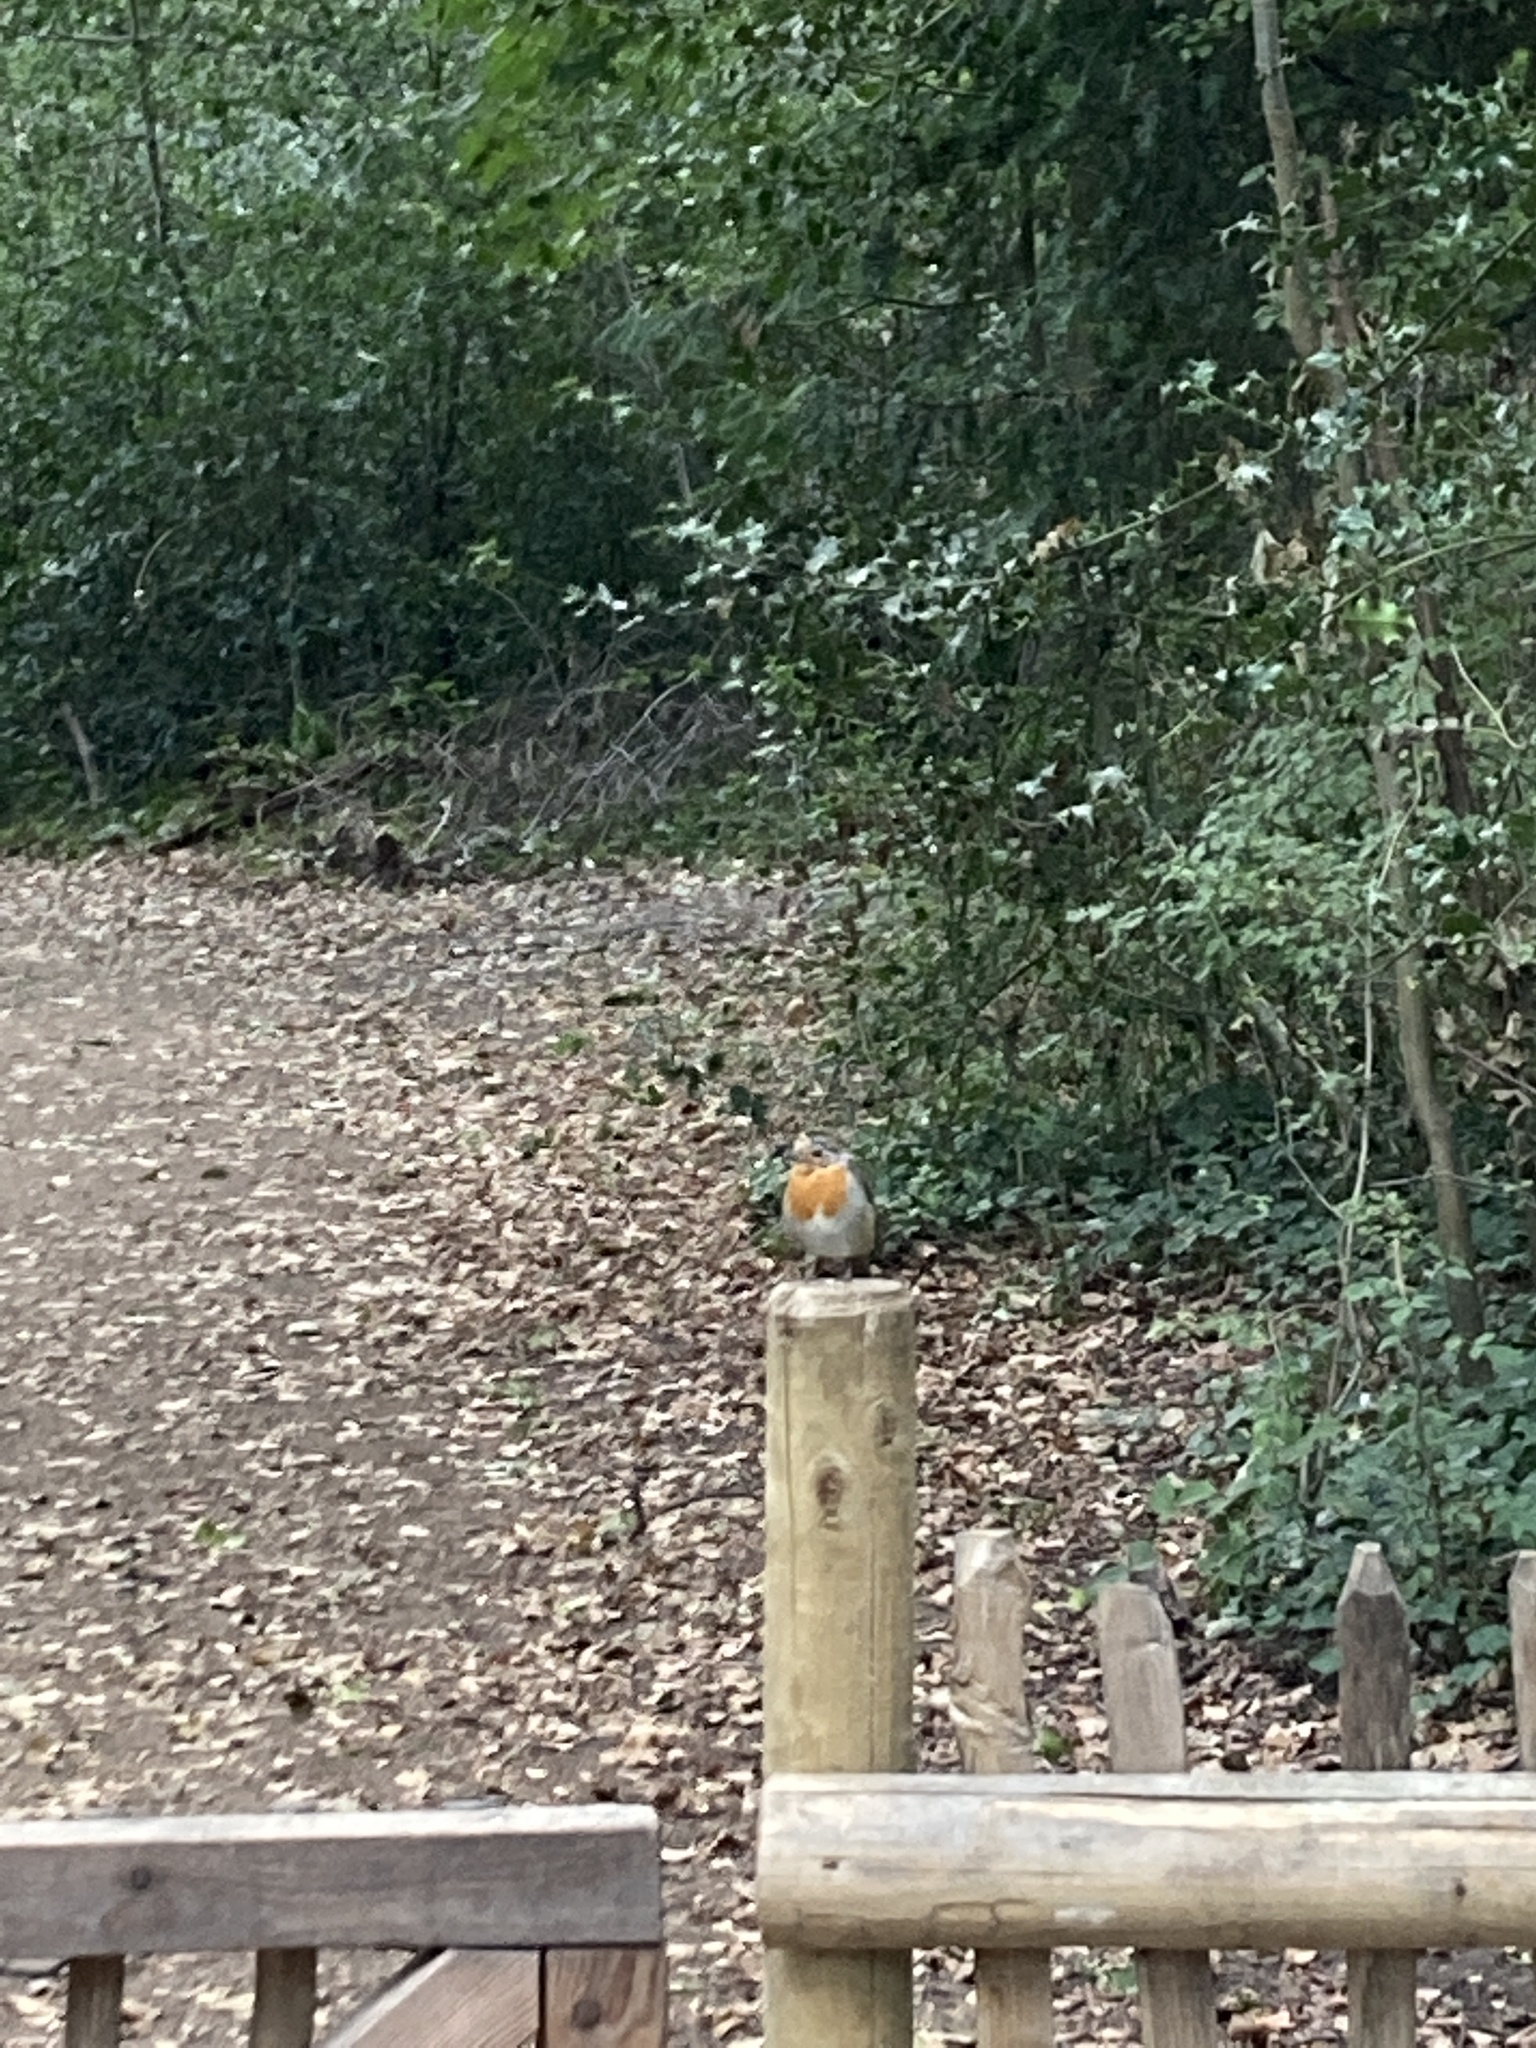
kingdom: Animalia
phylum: Chordata
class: Aves
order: Passeriformes
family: Muscicapidae
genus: Erithacus
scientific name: Erithacus rubecula
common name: European robin
